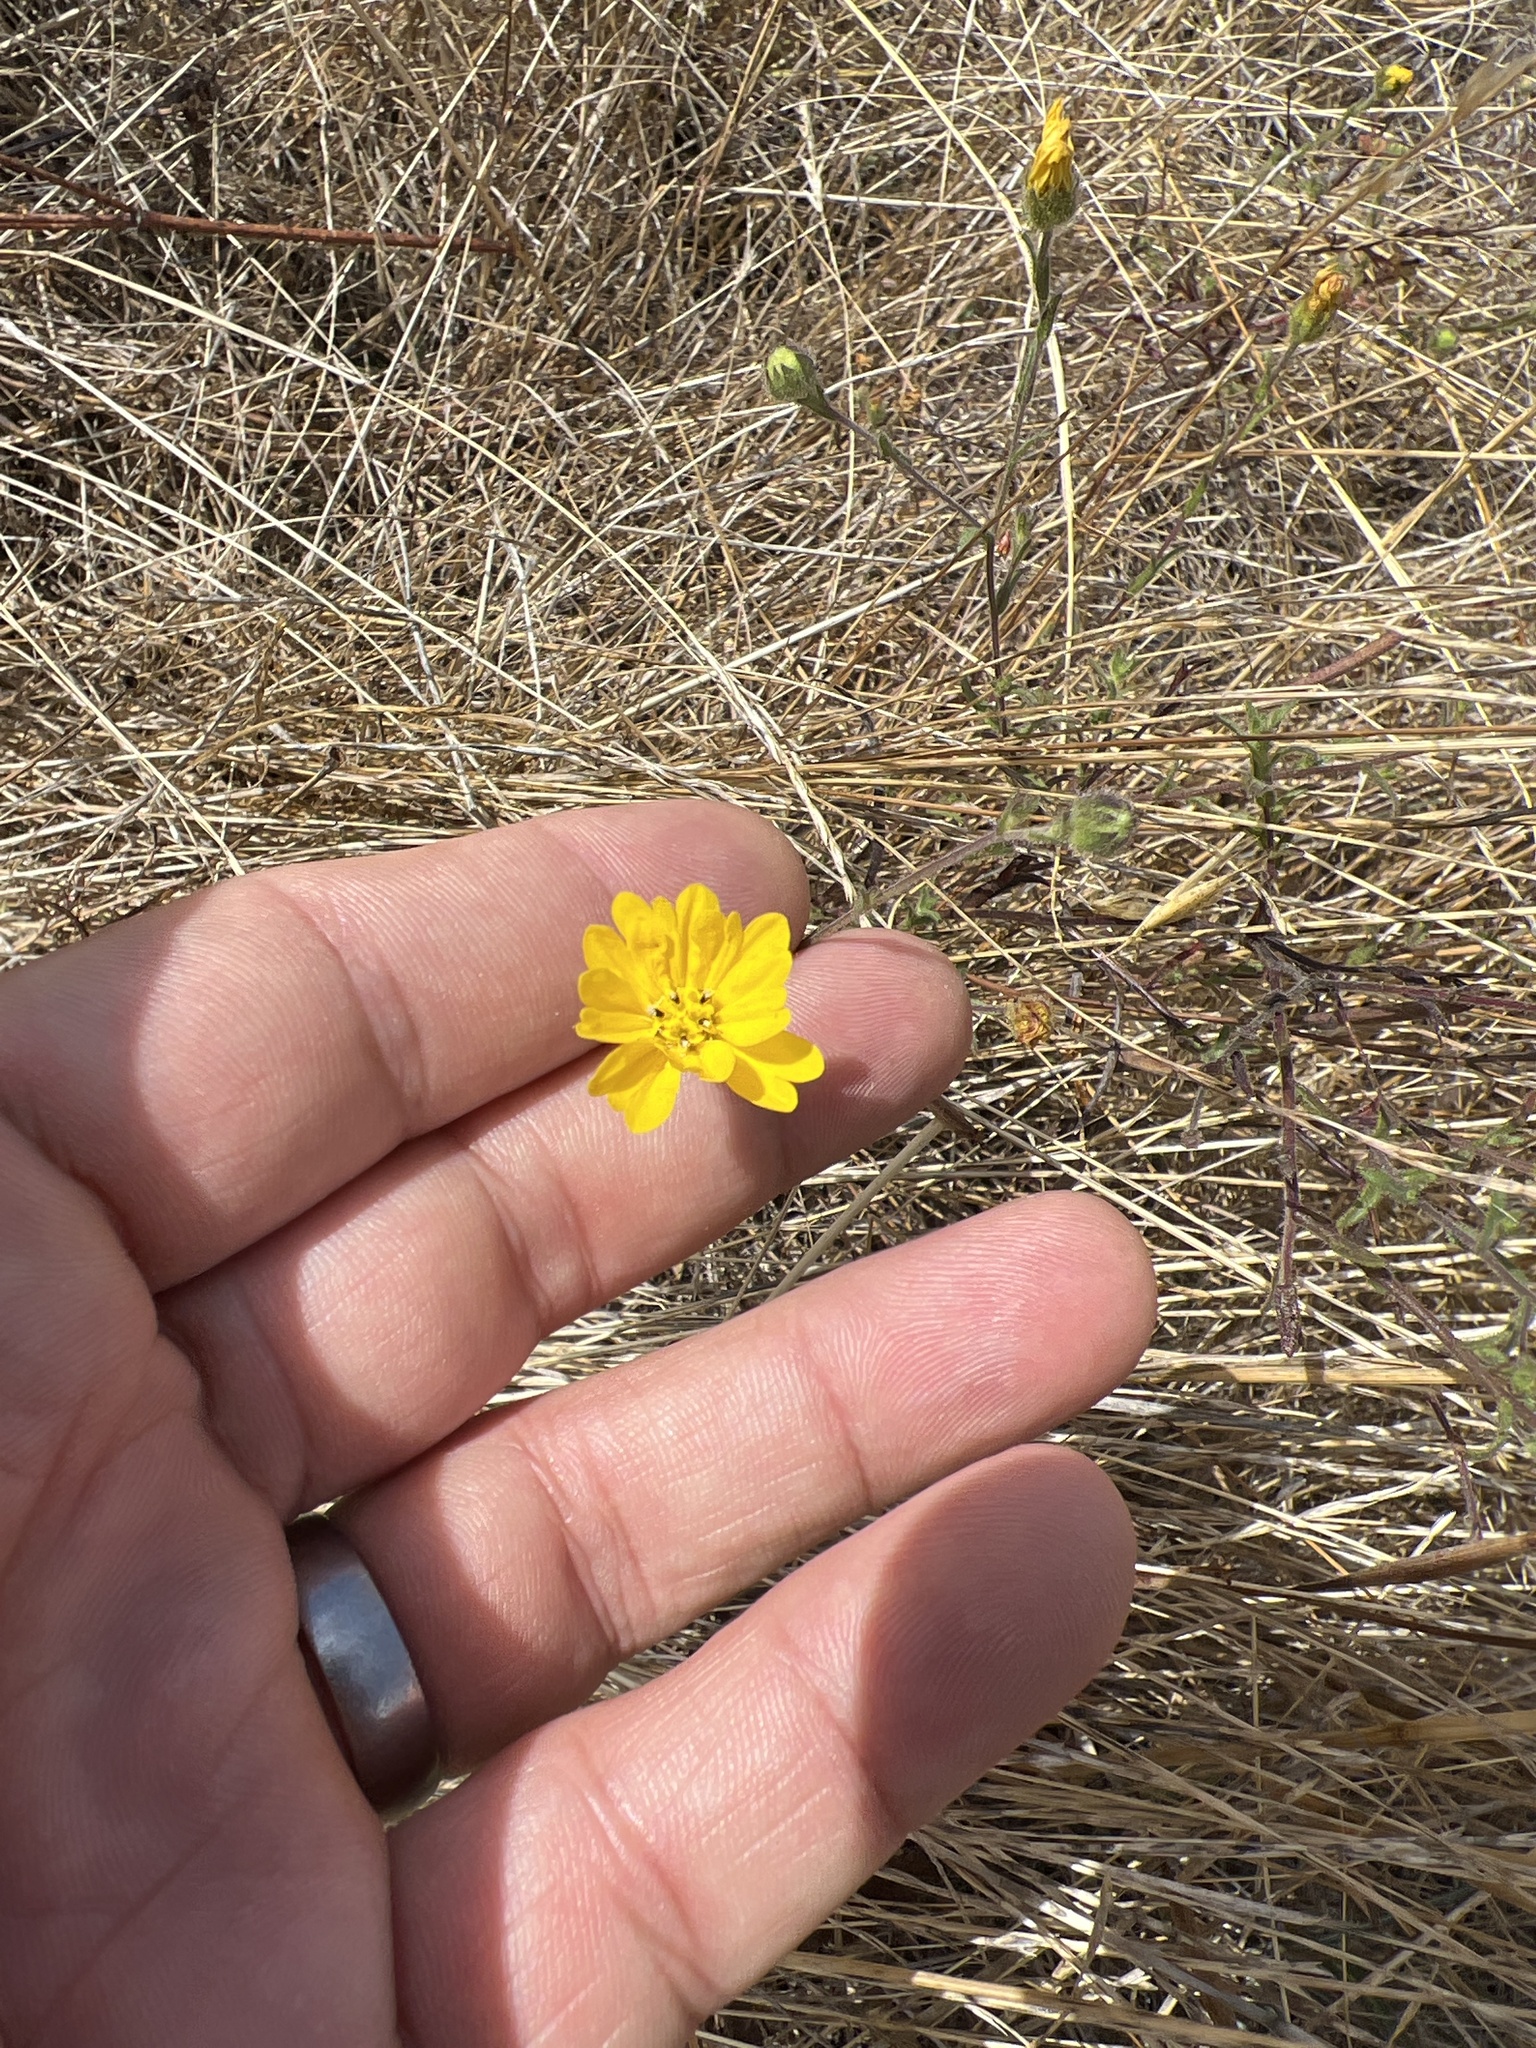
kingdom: Plantae
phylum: Tracheophyta
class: Magnoliopsida
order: Asterales
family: Asteraceae
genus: Hemizonia
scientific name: Hemizonia congesta
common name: Hayfield tarweed
